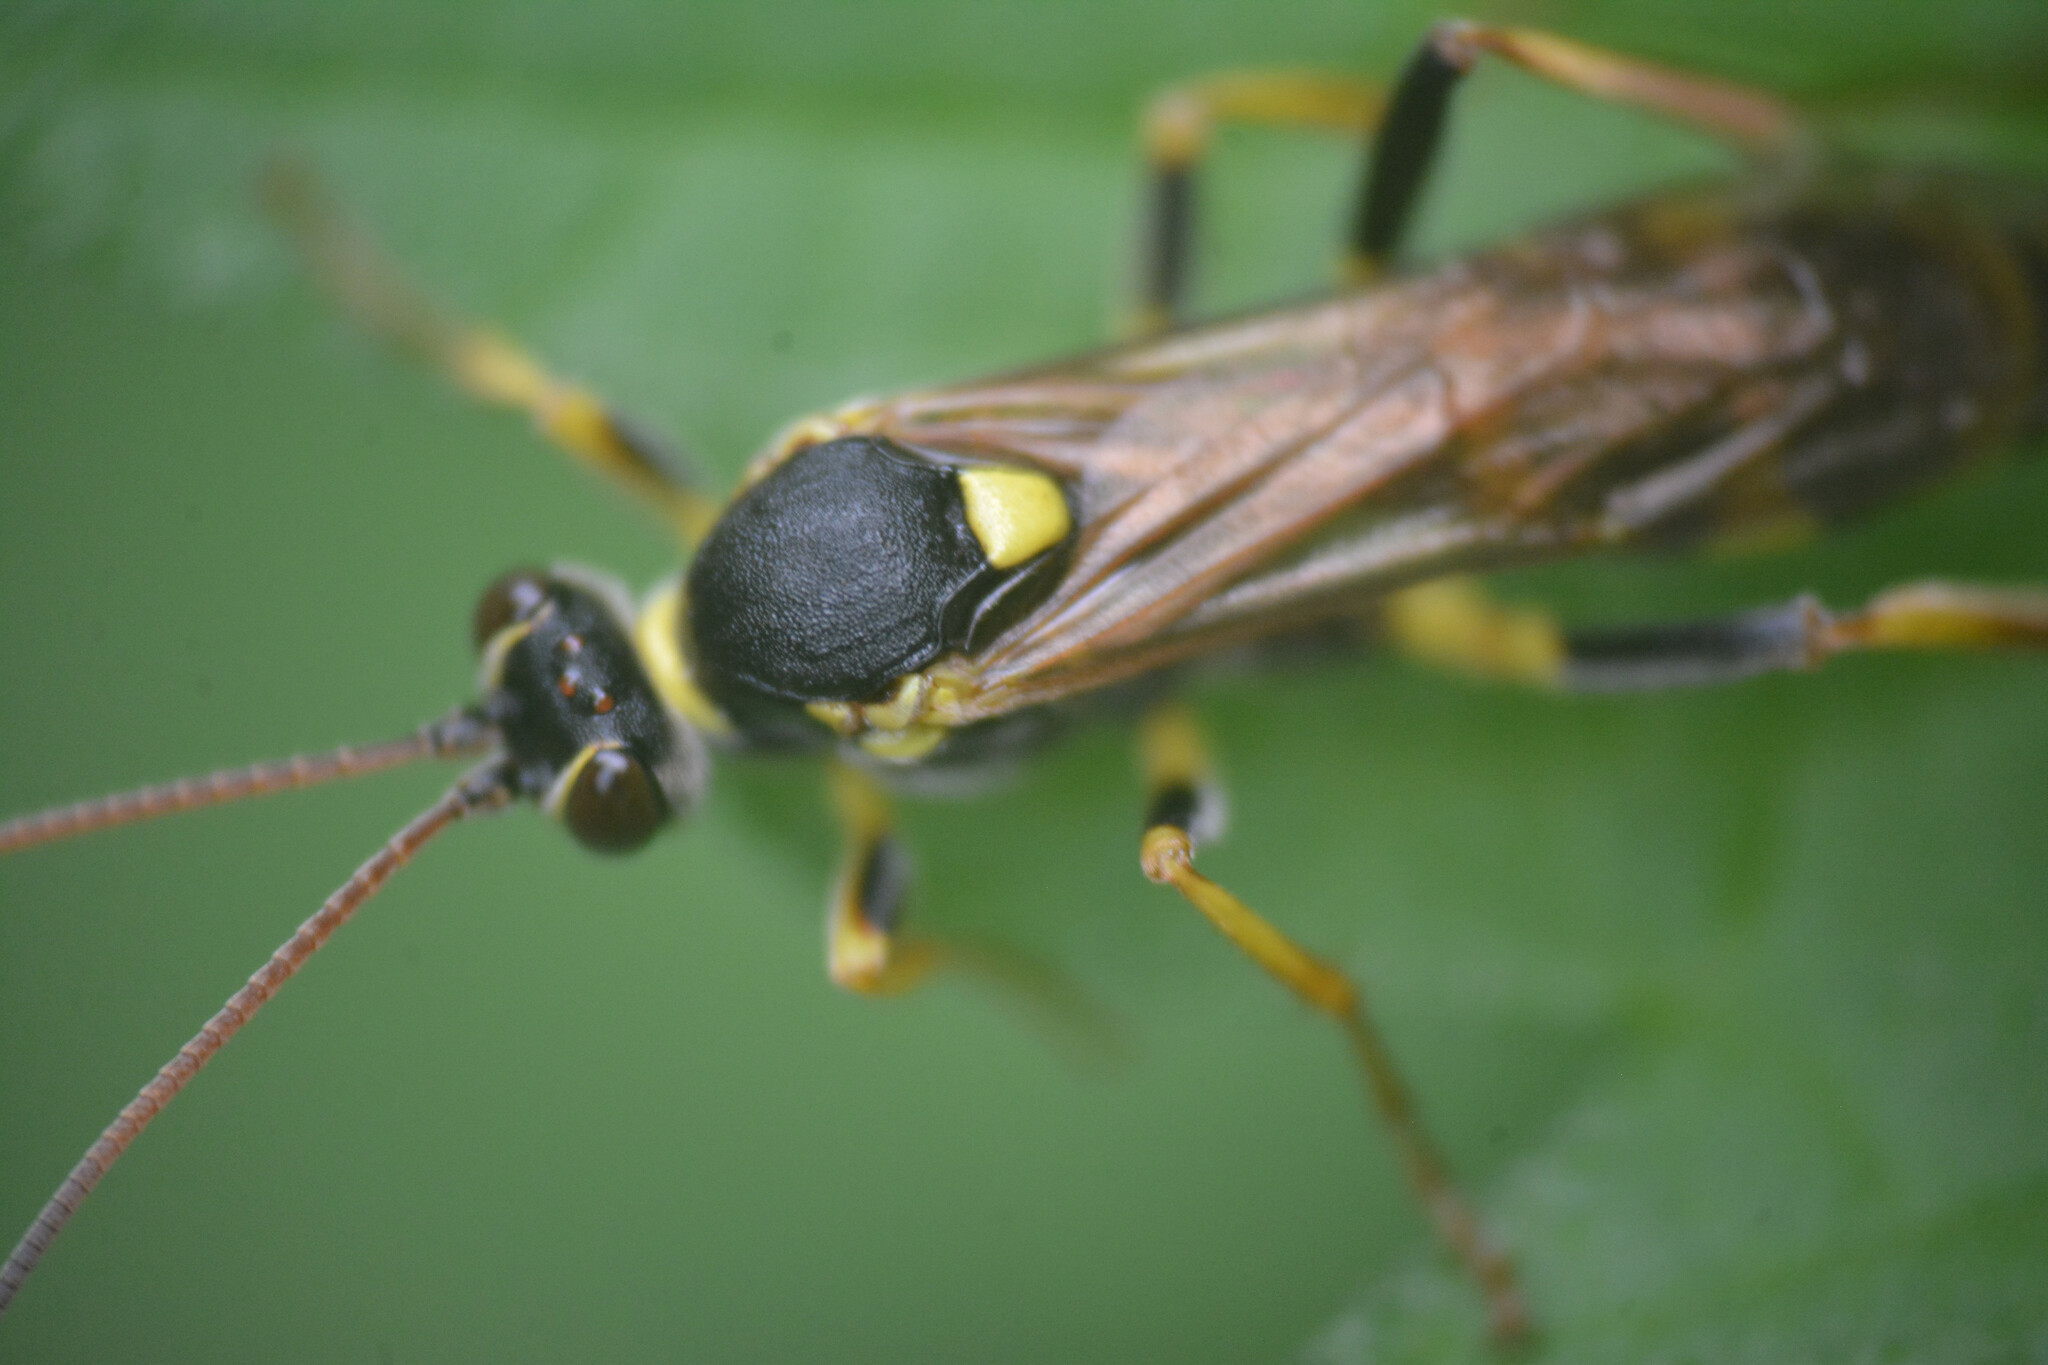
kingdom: Animalia
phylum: Arthropoda
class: Insecta
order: Hymenoptera
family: Ichneumonidae
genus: Amblyteles
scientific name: Amblyteles armatorius
